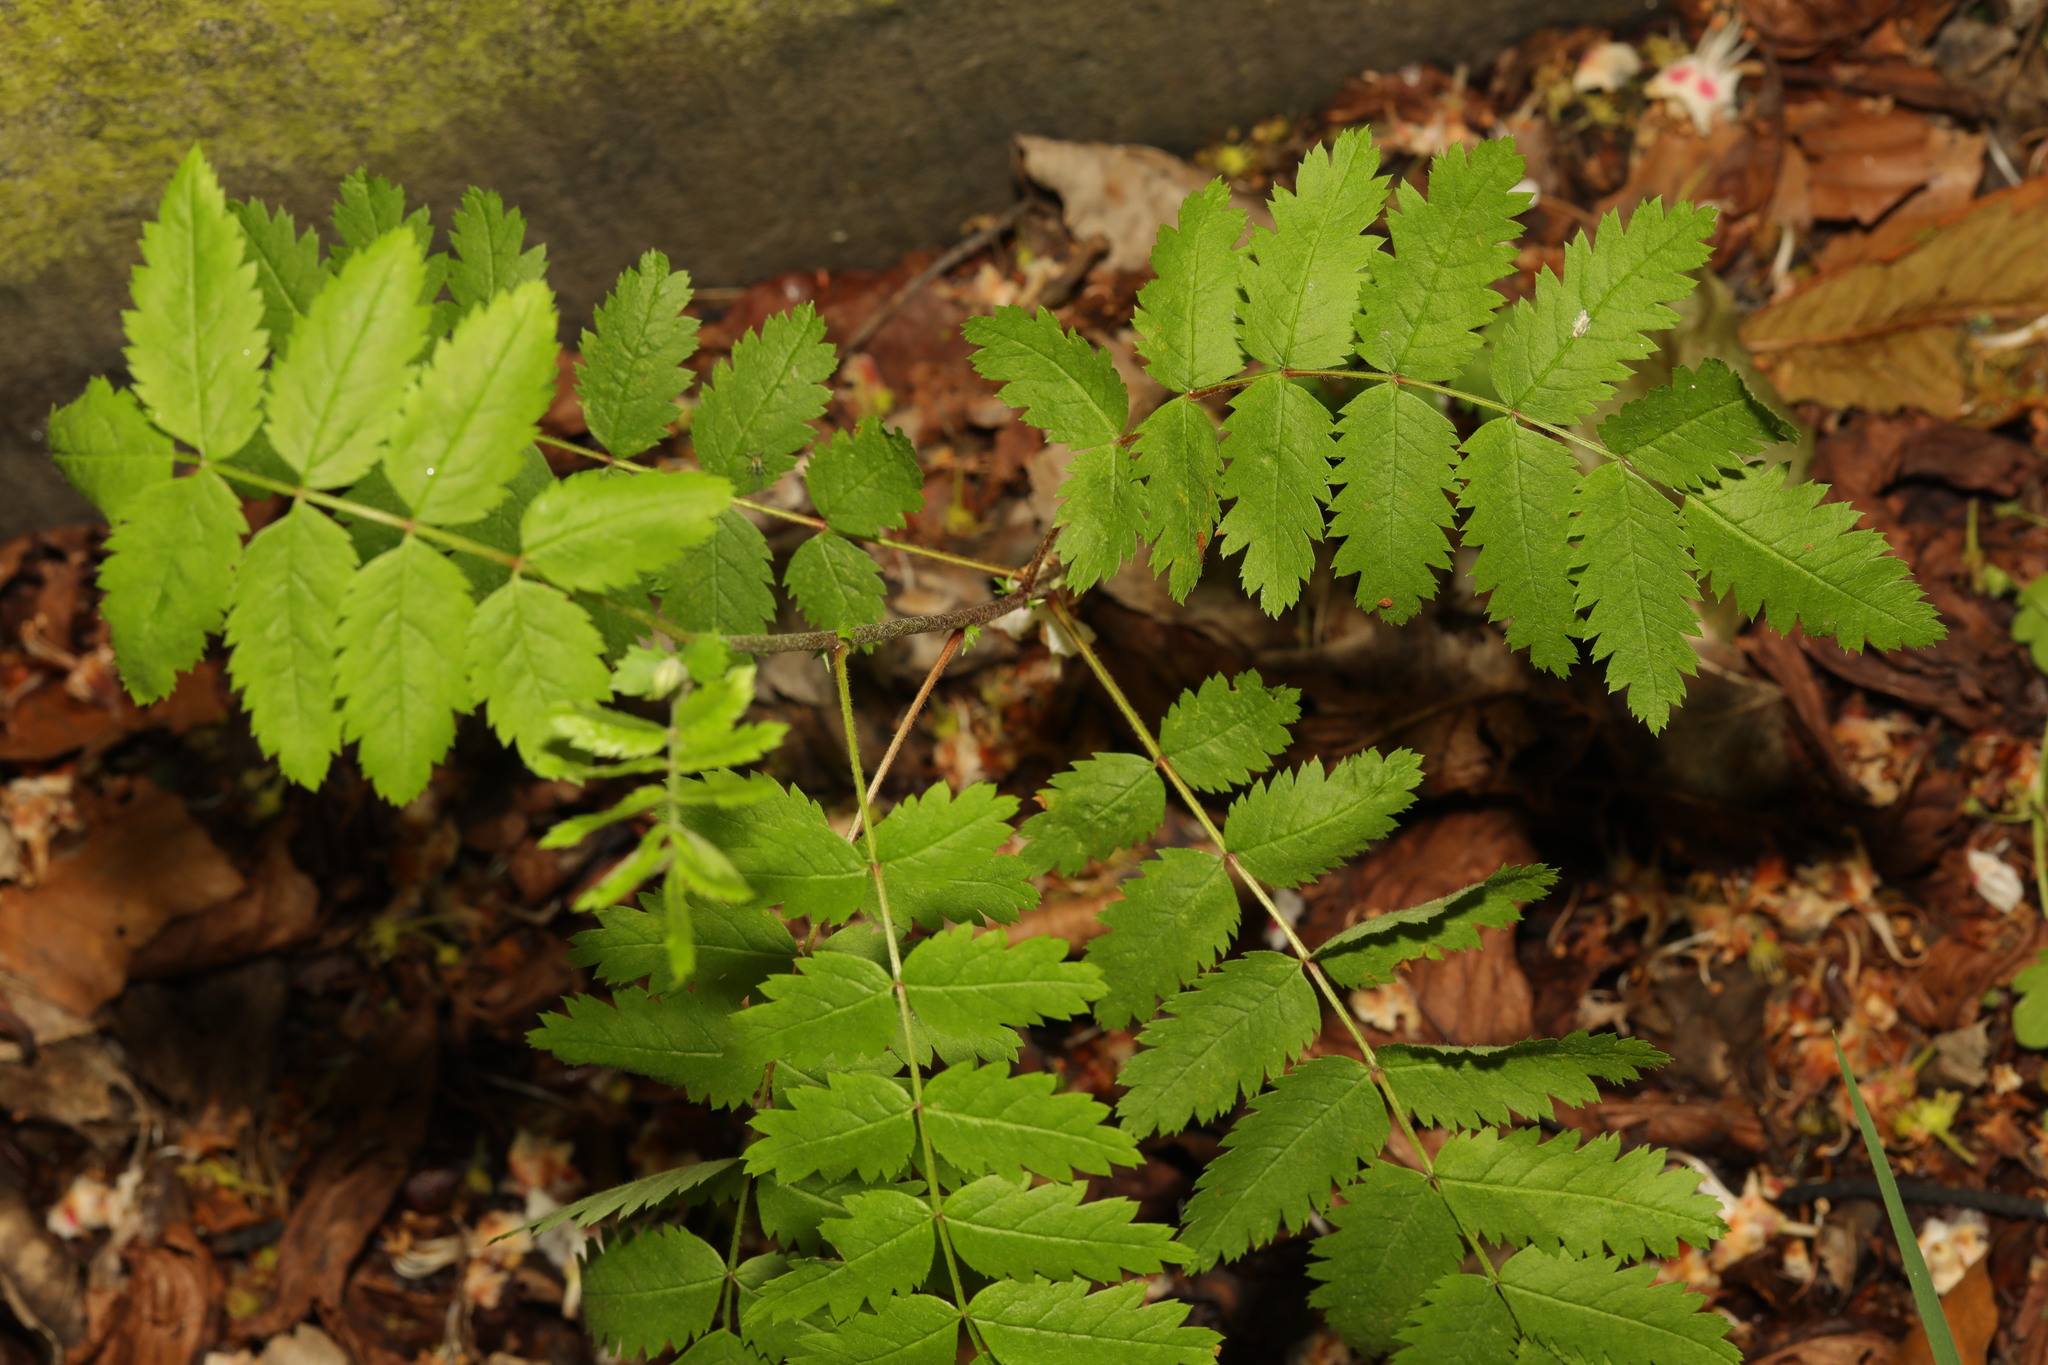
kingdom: Plantae
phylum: Tracheophyta
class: Magnoliopsida
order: Rosales
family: Rosaceae
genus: Sorbus
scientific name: Sorbus aucuparia
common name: Rowan
